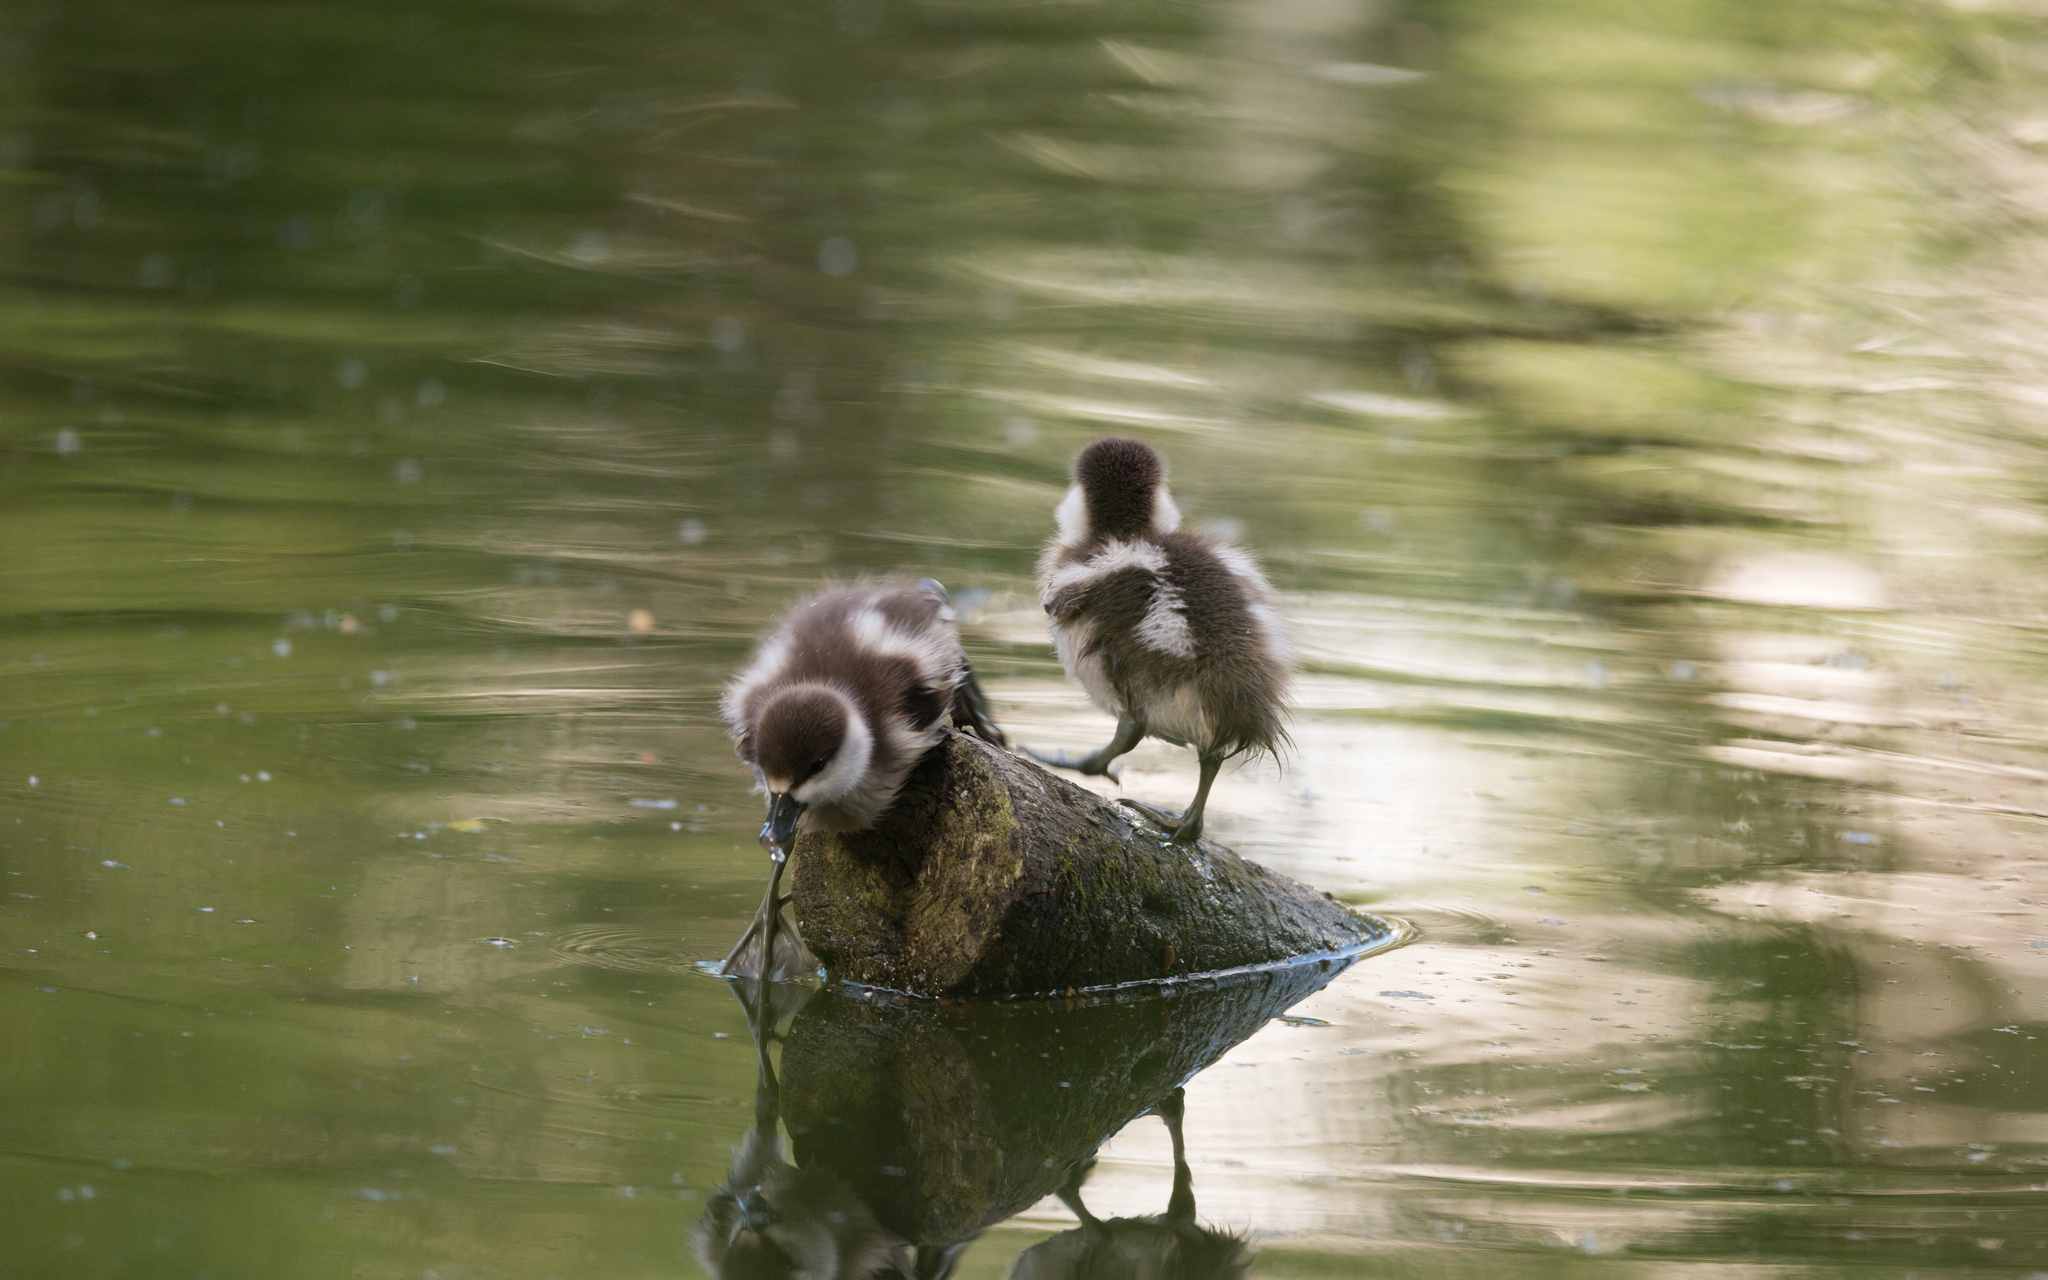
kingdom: Animalia
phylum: Chordata
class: Aves
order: Anseriformes
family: Anatidae
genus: Tadorna
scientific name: Tadorna ferruginea
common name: Ruddy shelduck
